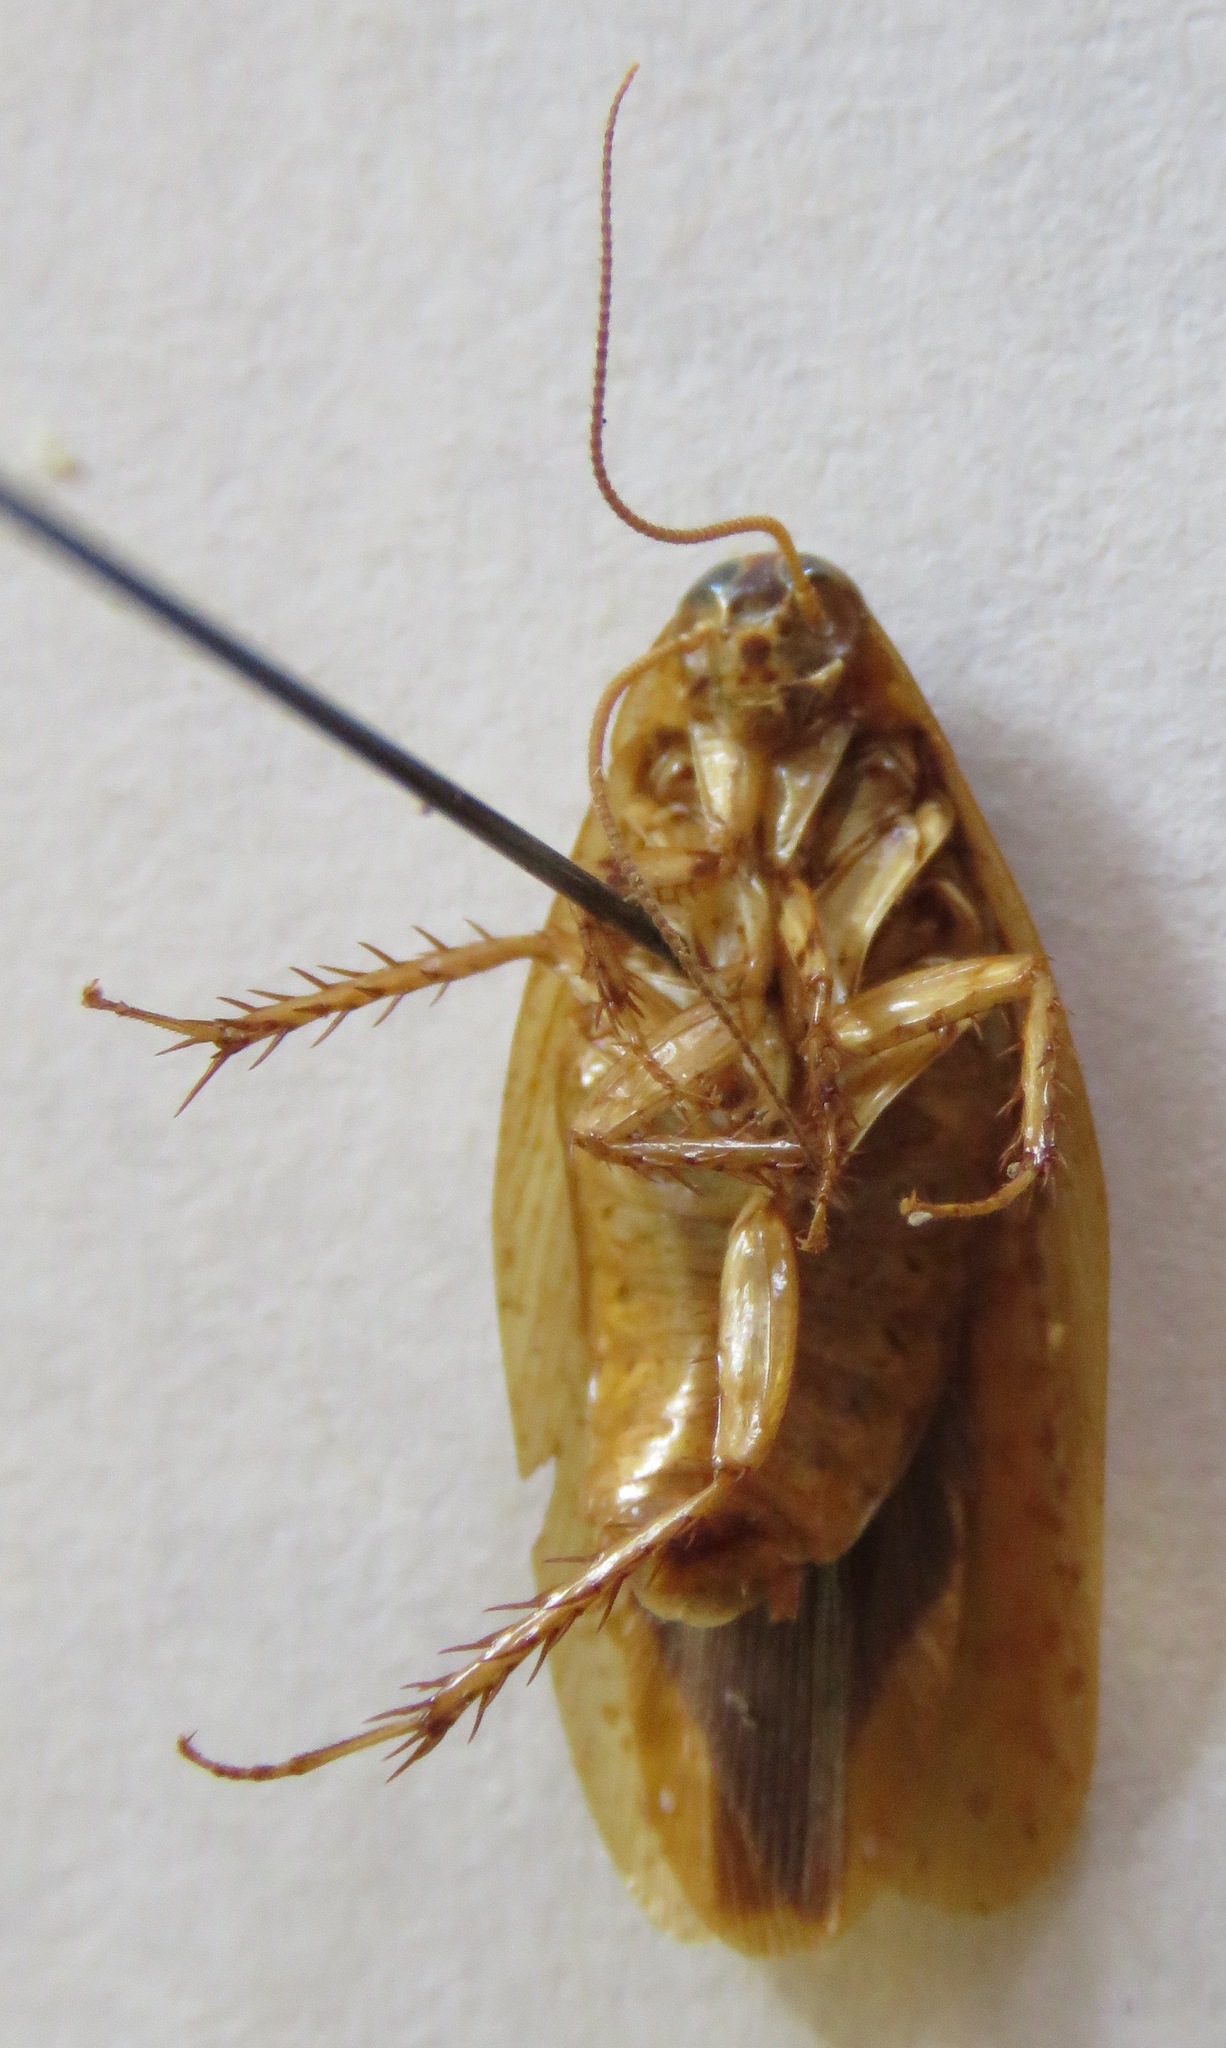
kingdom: Animalia
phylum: Arthropoda
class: Insecta
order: Blattodea
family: Blaberidae
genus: Epilampra
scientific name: Epilampra mexicana
